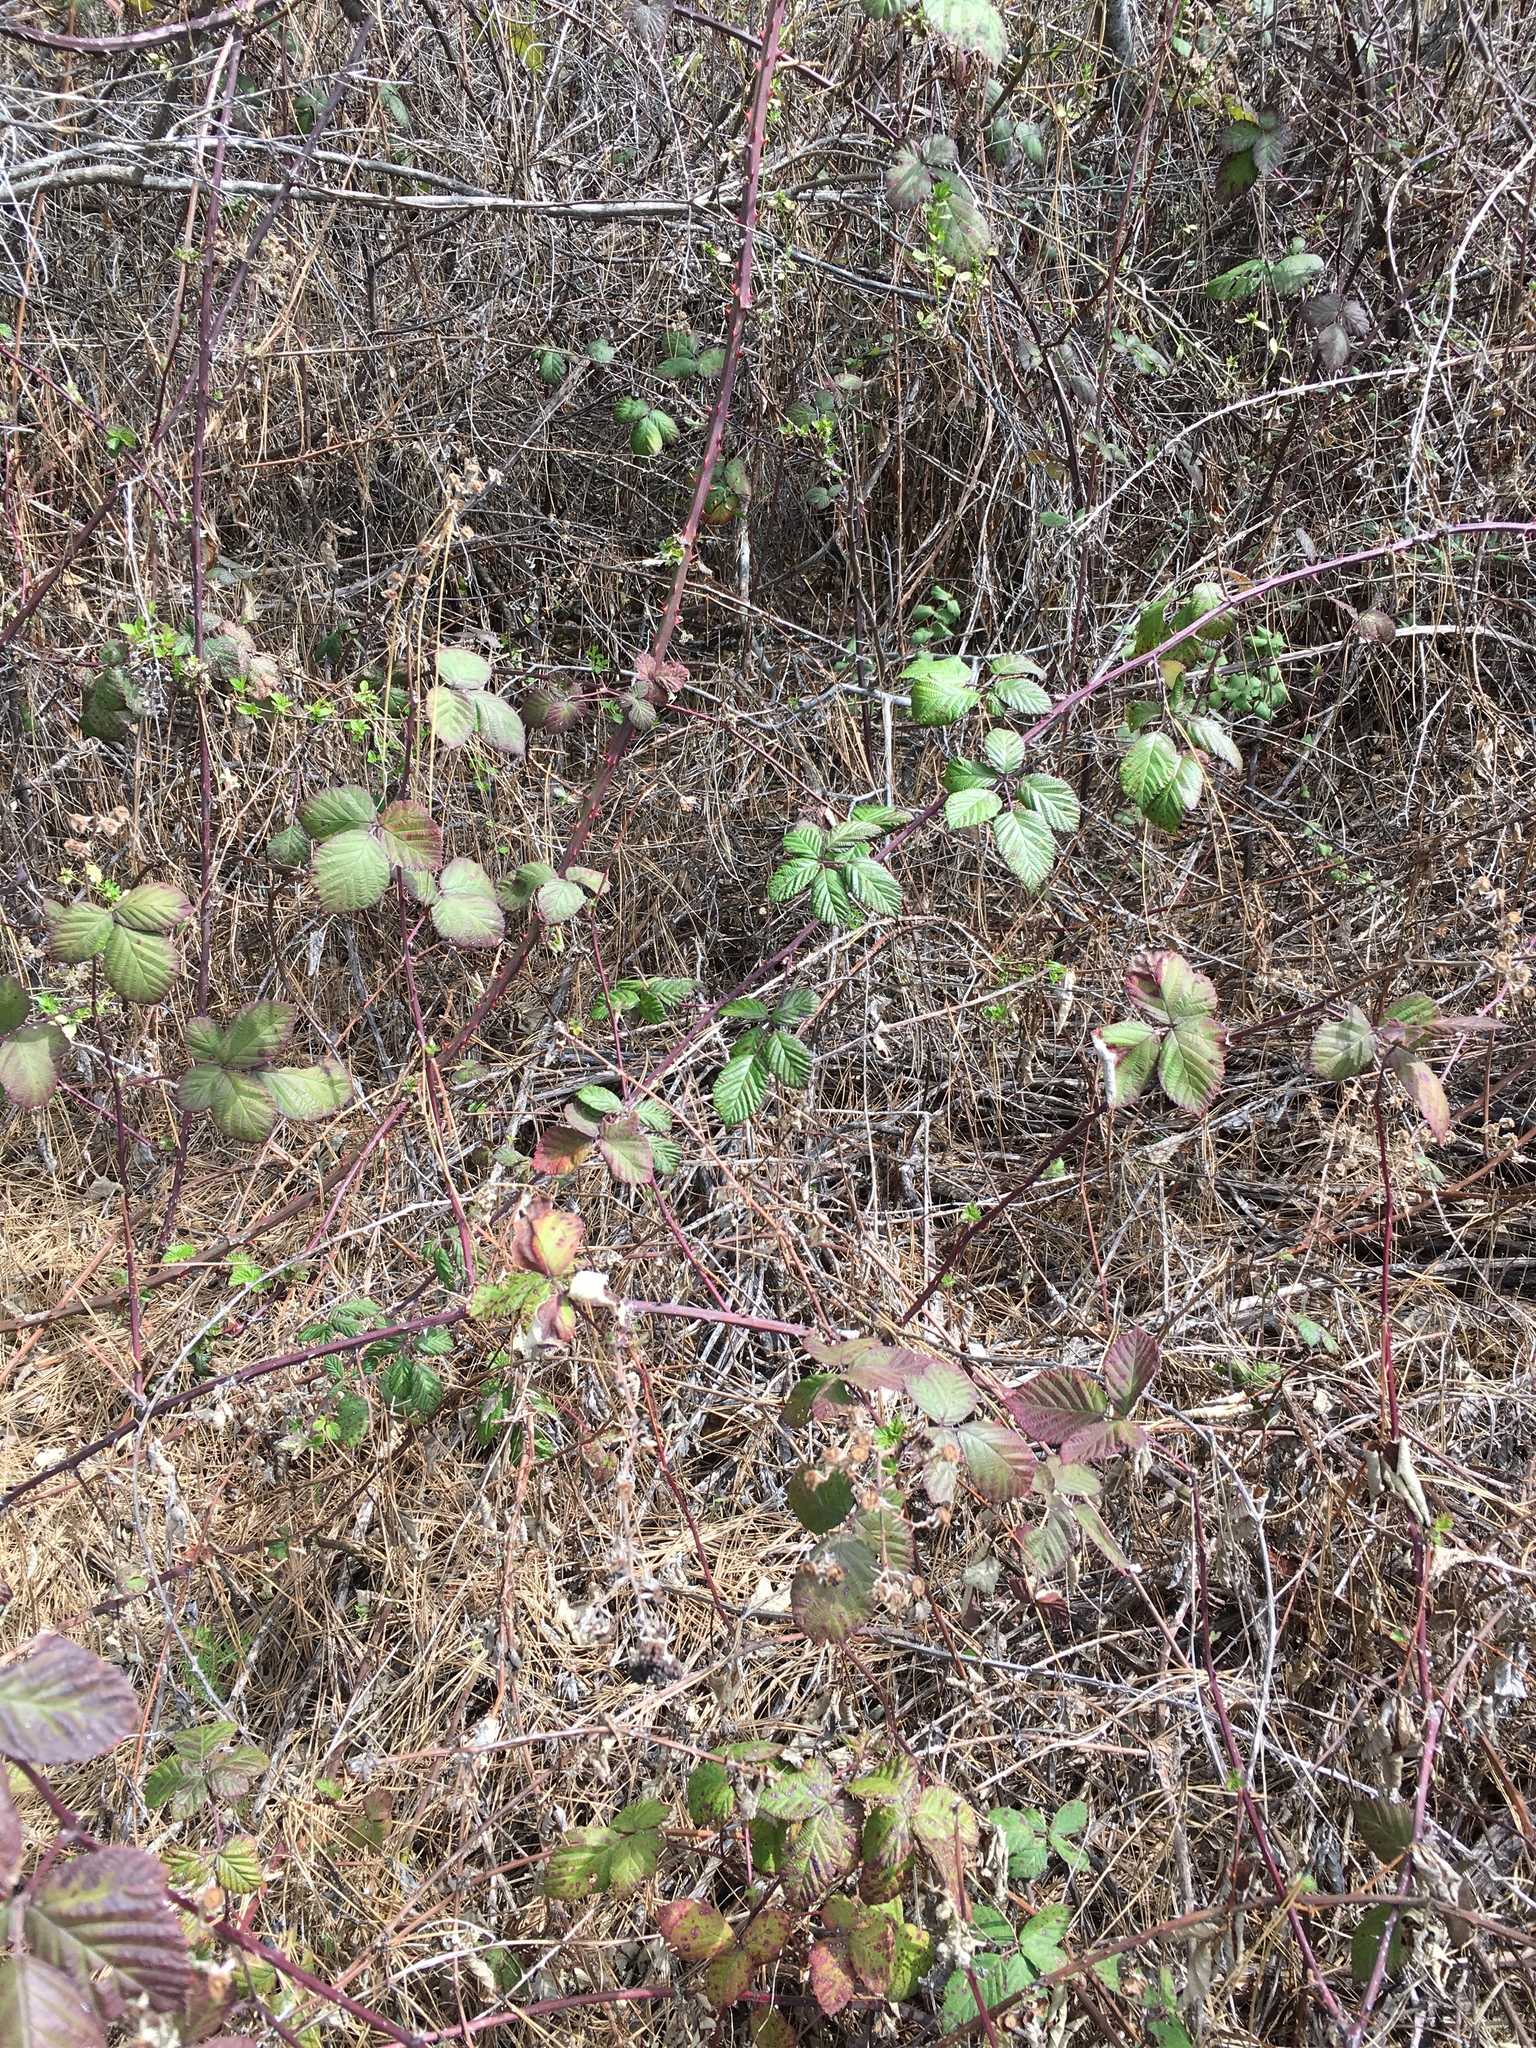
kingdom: Plantae
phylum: Tracheophyta
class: Magnoliopsida
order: Rosales
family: Rosaceae
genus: Rubus
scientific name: Rubus armeniacus
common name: Himalayan blackberry
